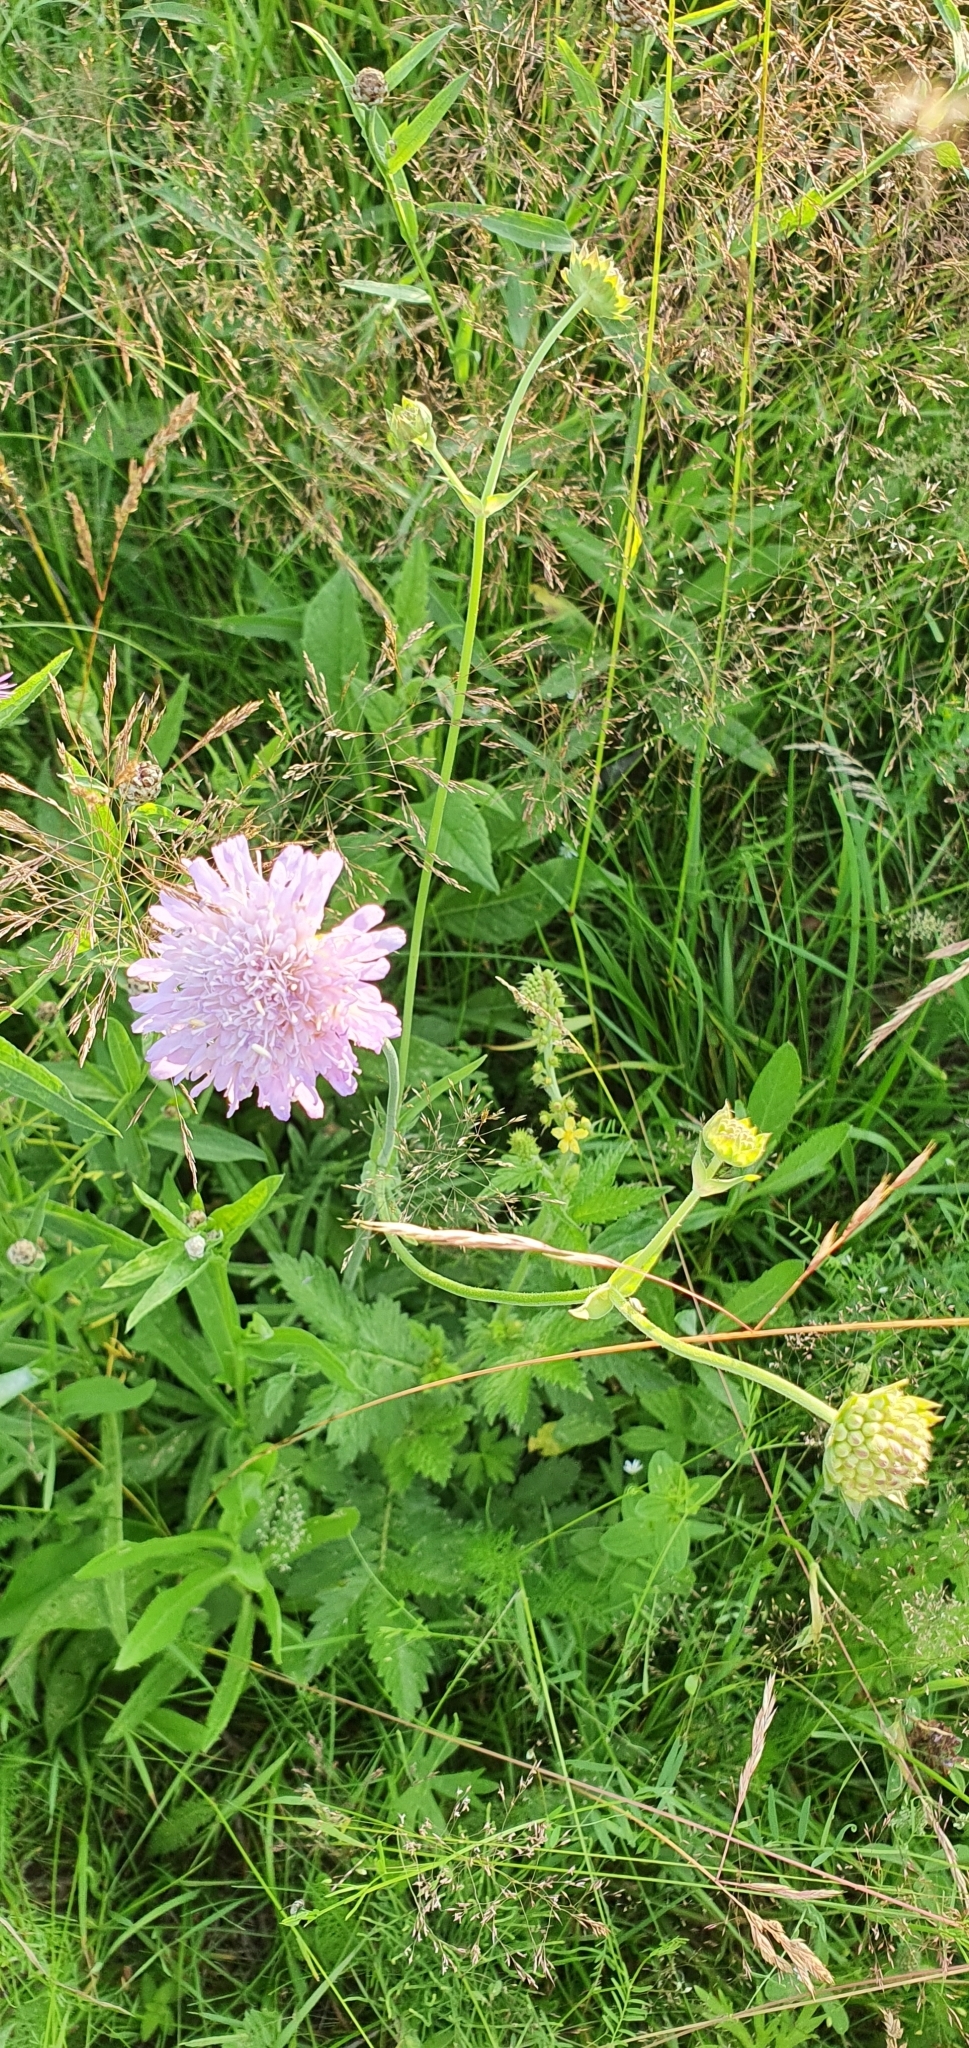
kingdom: Plantae
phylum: Tracheophyta
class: Magnoliopsida
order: Dipsacales
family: Caprifoliaceae
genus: Knautia
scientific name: Knautia arvensis
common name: Field scabiosa
